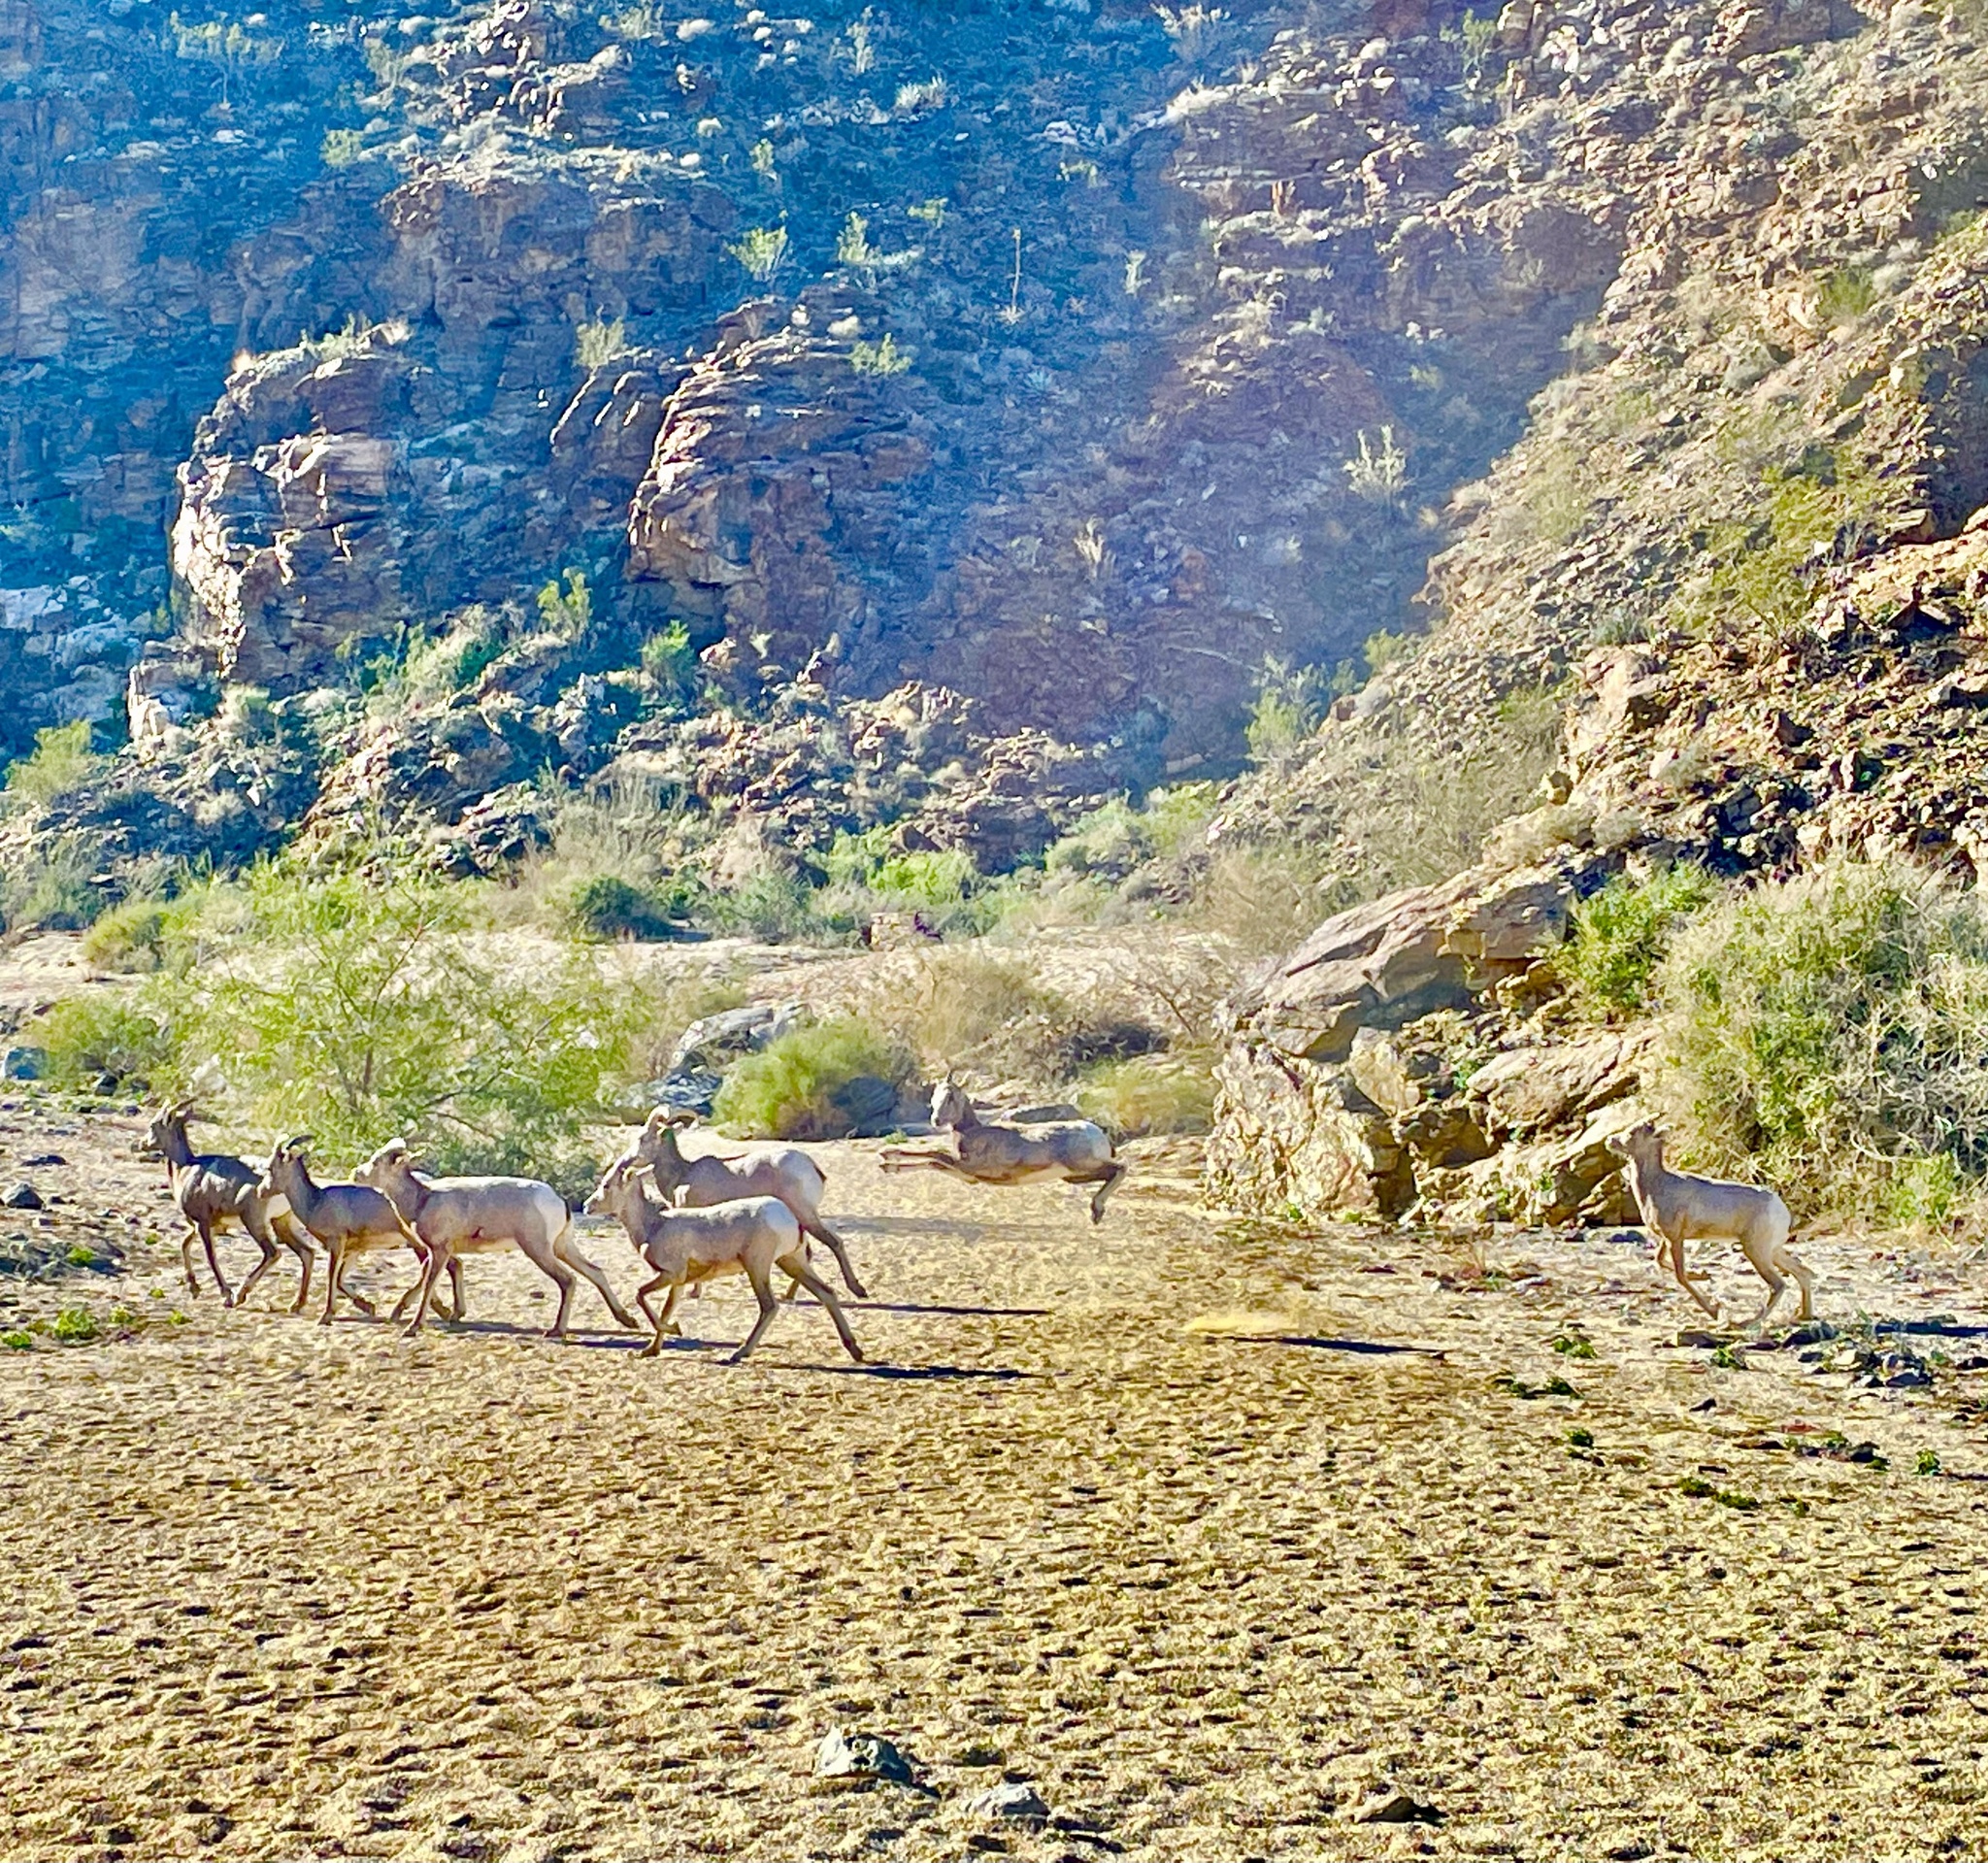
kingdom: Animalia
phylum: Chordata
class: Mammalia
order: Artiodactyla
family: Bovidae
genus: Ovis
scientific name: Ovis canadensis
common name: Bighorn sheep
